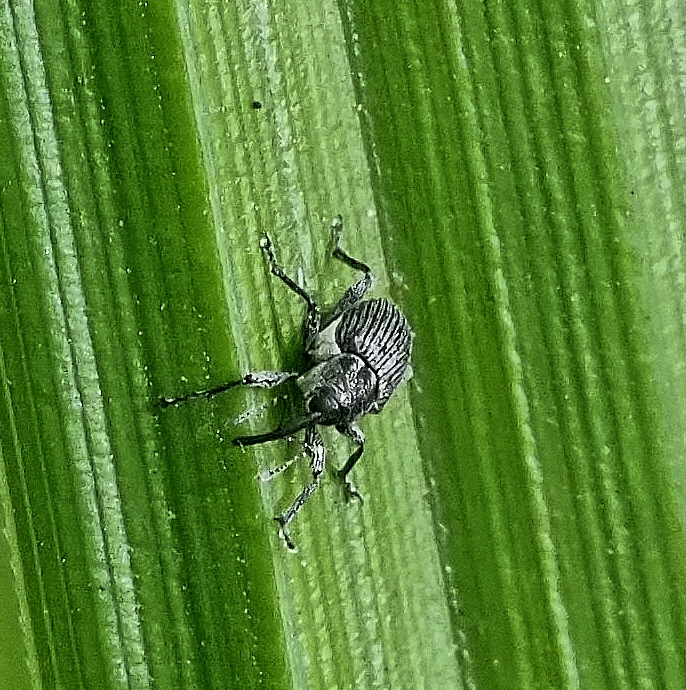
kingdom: Animalia
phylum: Arthropoda
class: Insecta
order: Coleoptera
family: Curculionidae
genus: Archarius
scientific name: Archarius salicivorus
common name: Weevil
